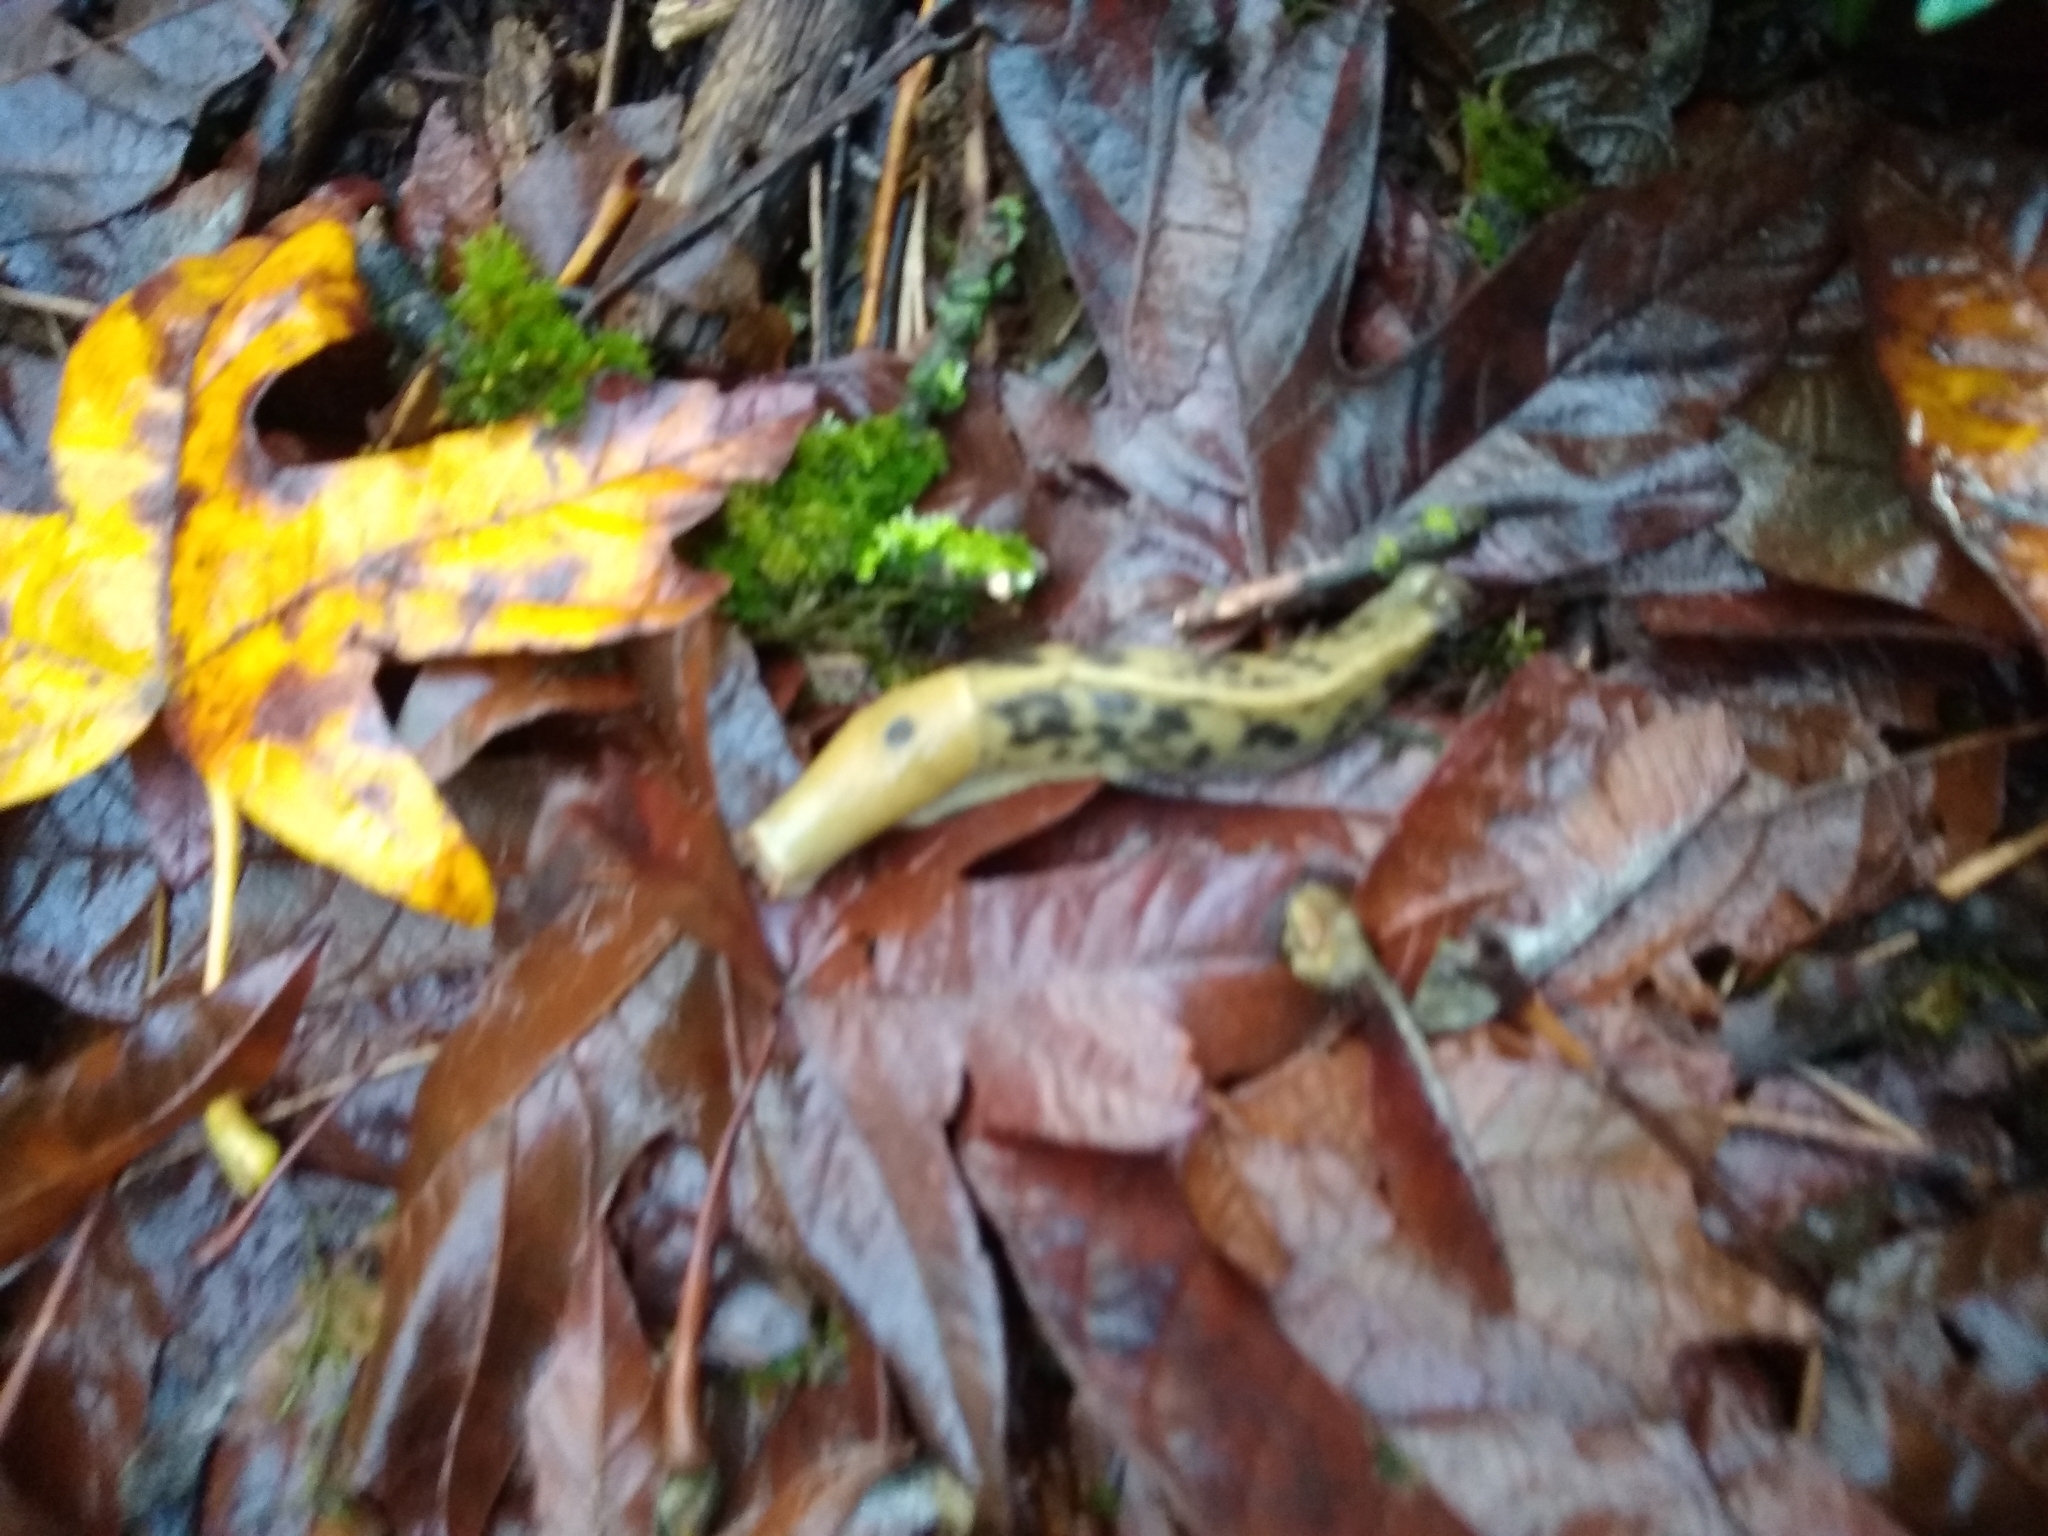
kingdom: Animalia
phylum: Mollusca
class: Gastropoda
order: Stylommatophora
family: Ariolimacidae
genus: Ariolimax
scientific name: Ariolimax columbianus
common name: Pacific banana slug
